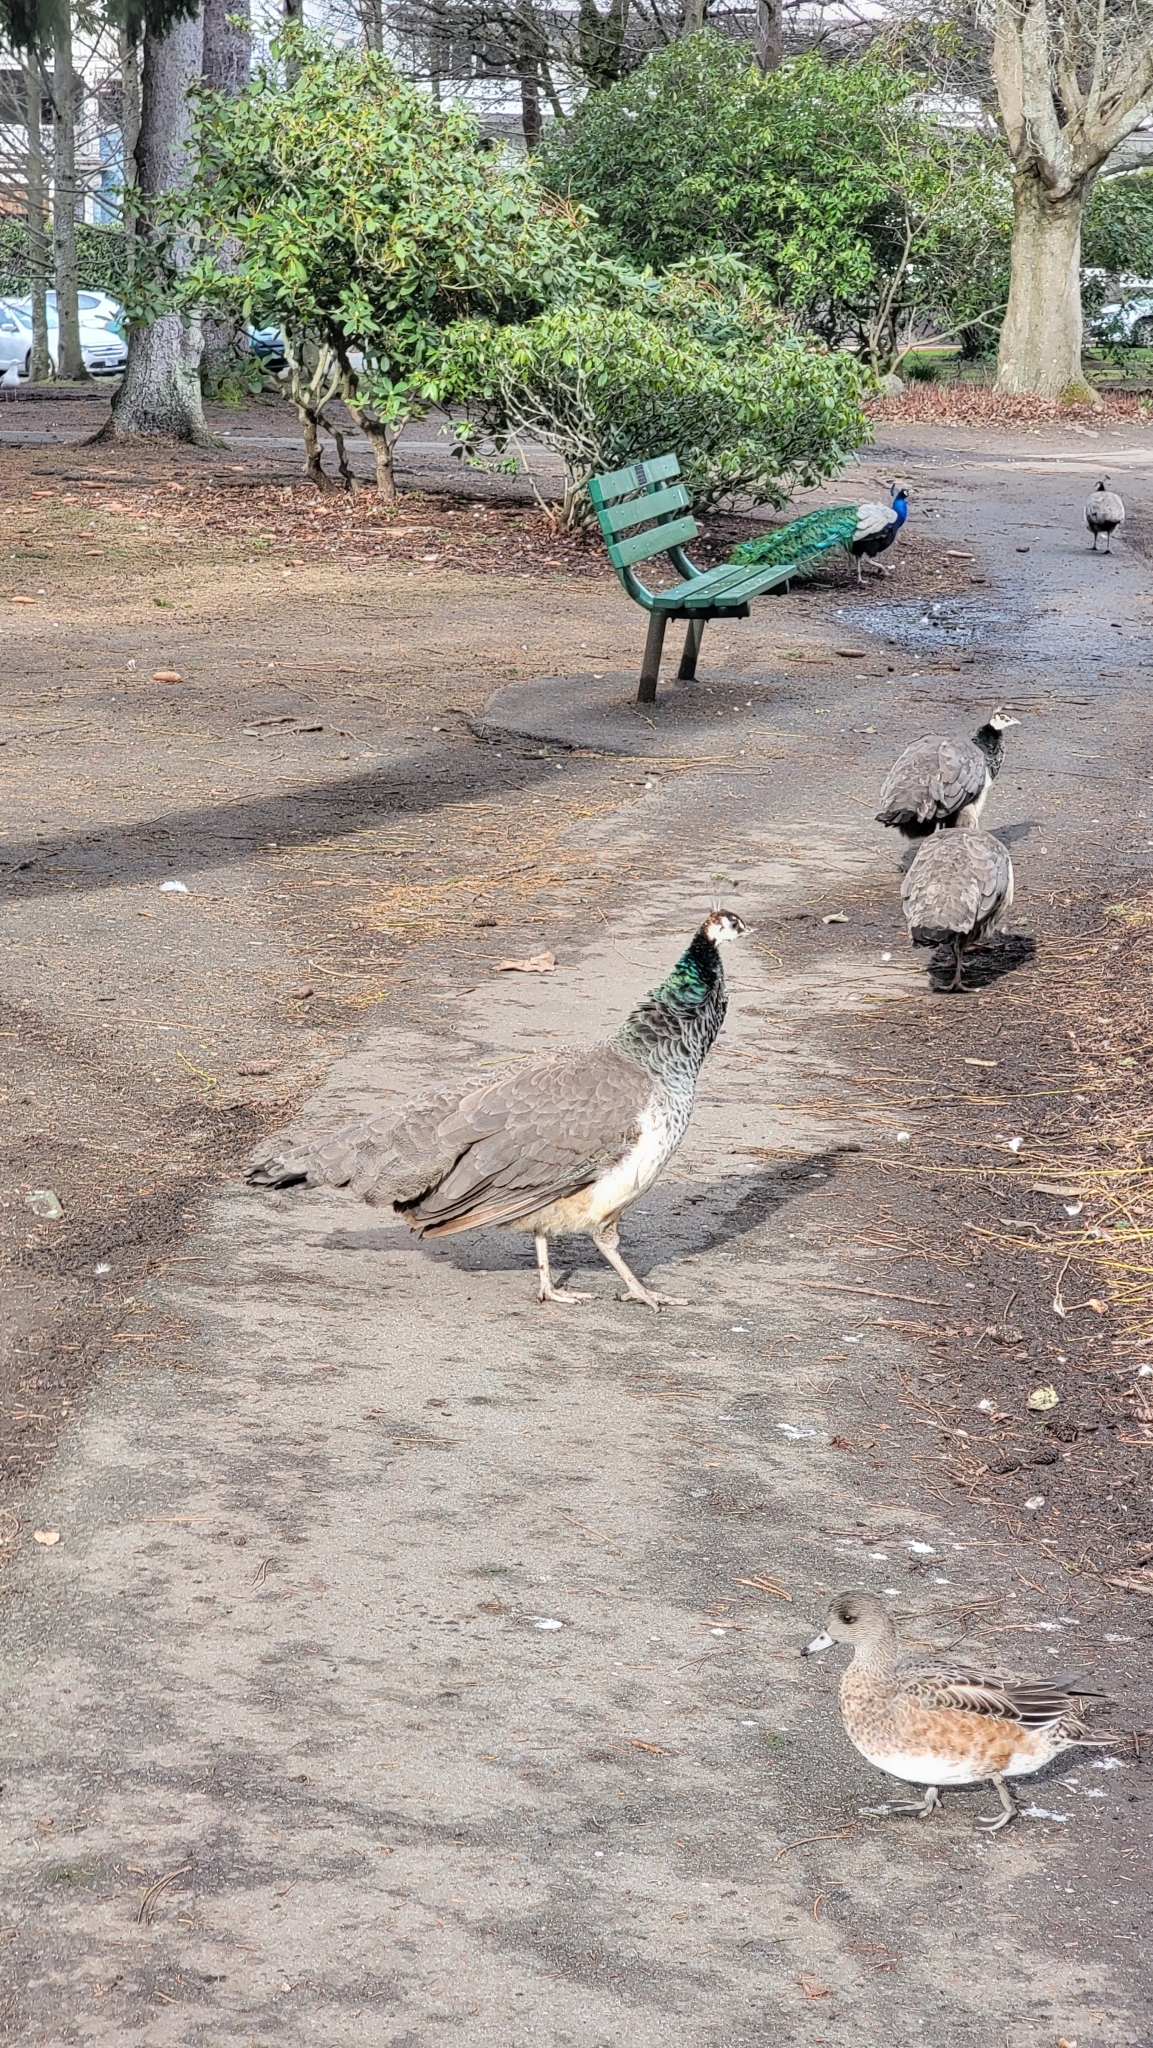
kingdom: Animalia
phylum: Chordata
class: Aves
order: Galliformes
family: Phasianidae
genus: Pavo
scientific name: Pavo cristatus
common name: Indian peafowl
